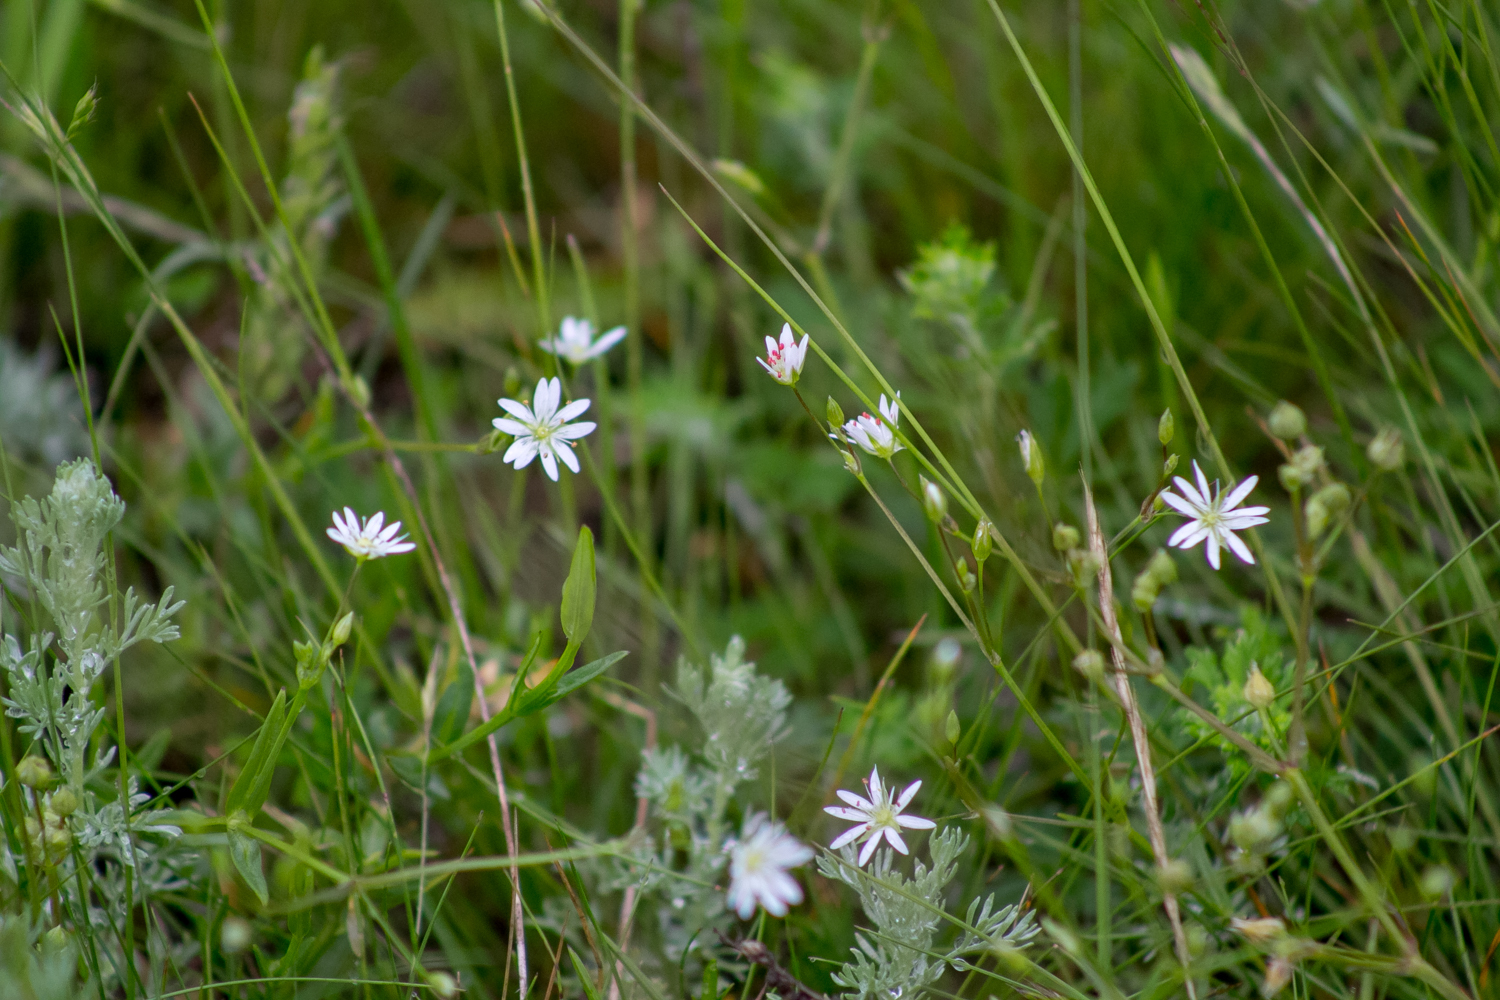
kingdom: Plantae
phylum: Tracheophyta
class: Magnoliopsida
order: Caryophyllales
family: Caryophyllaceae
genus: Stellaria
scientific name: Stellaria graminea
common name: Grass-like starwort
